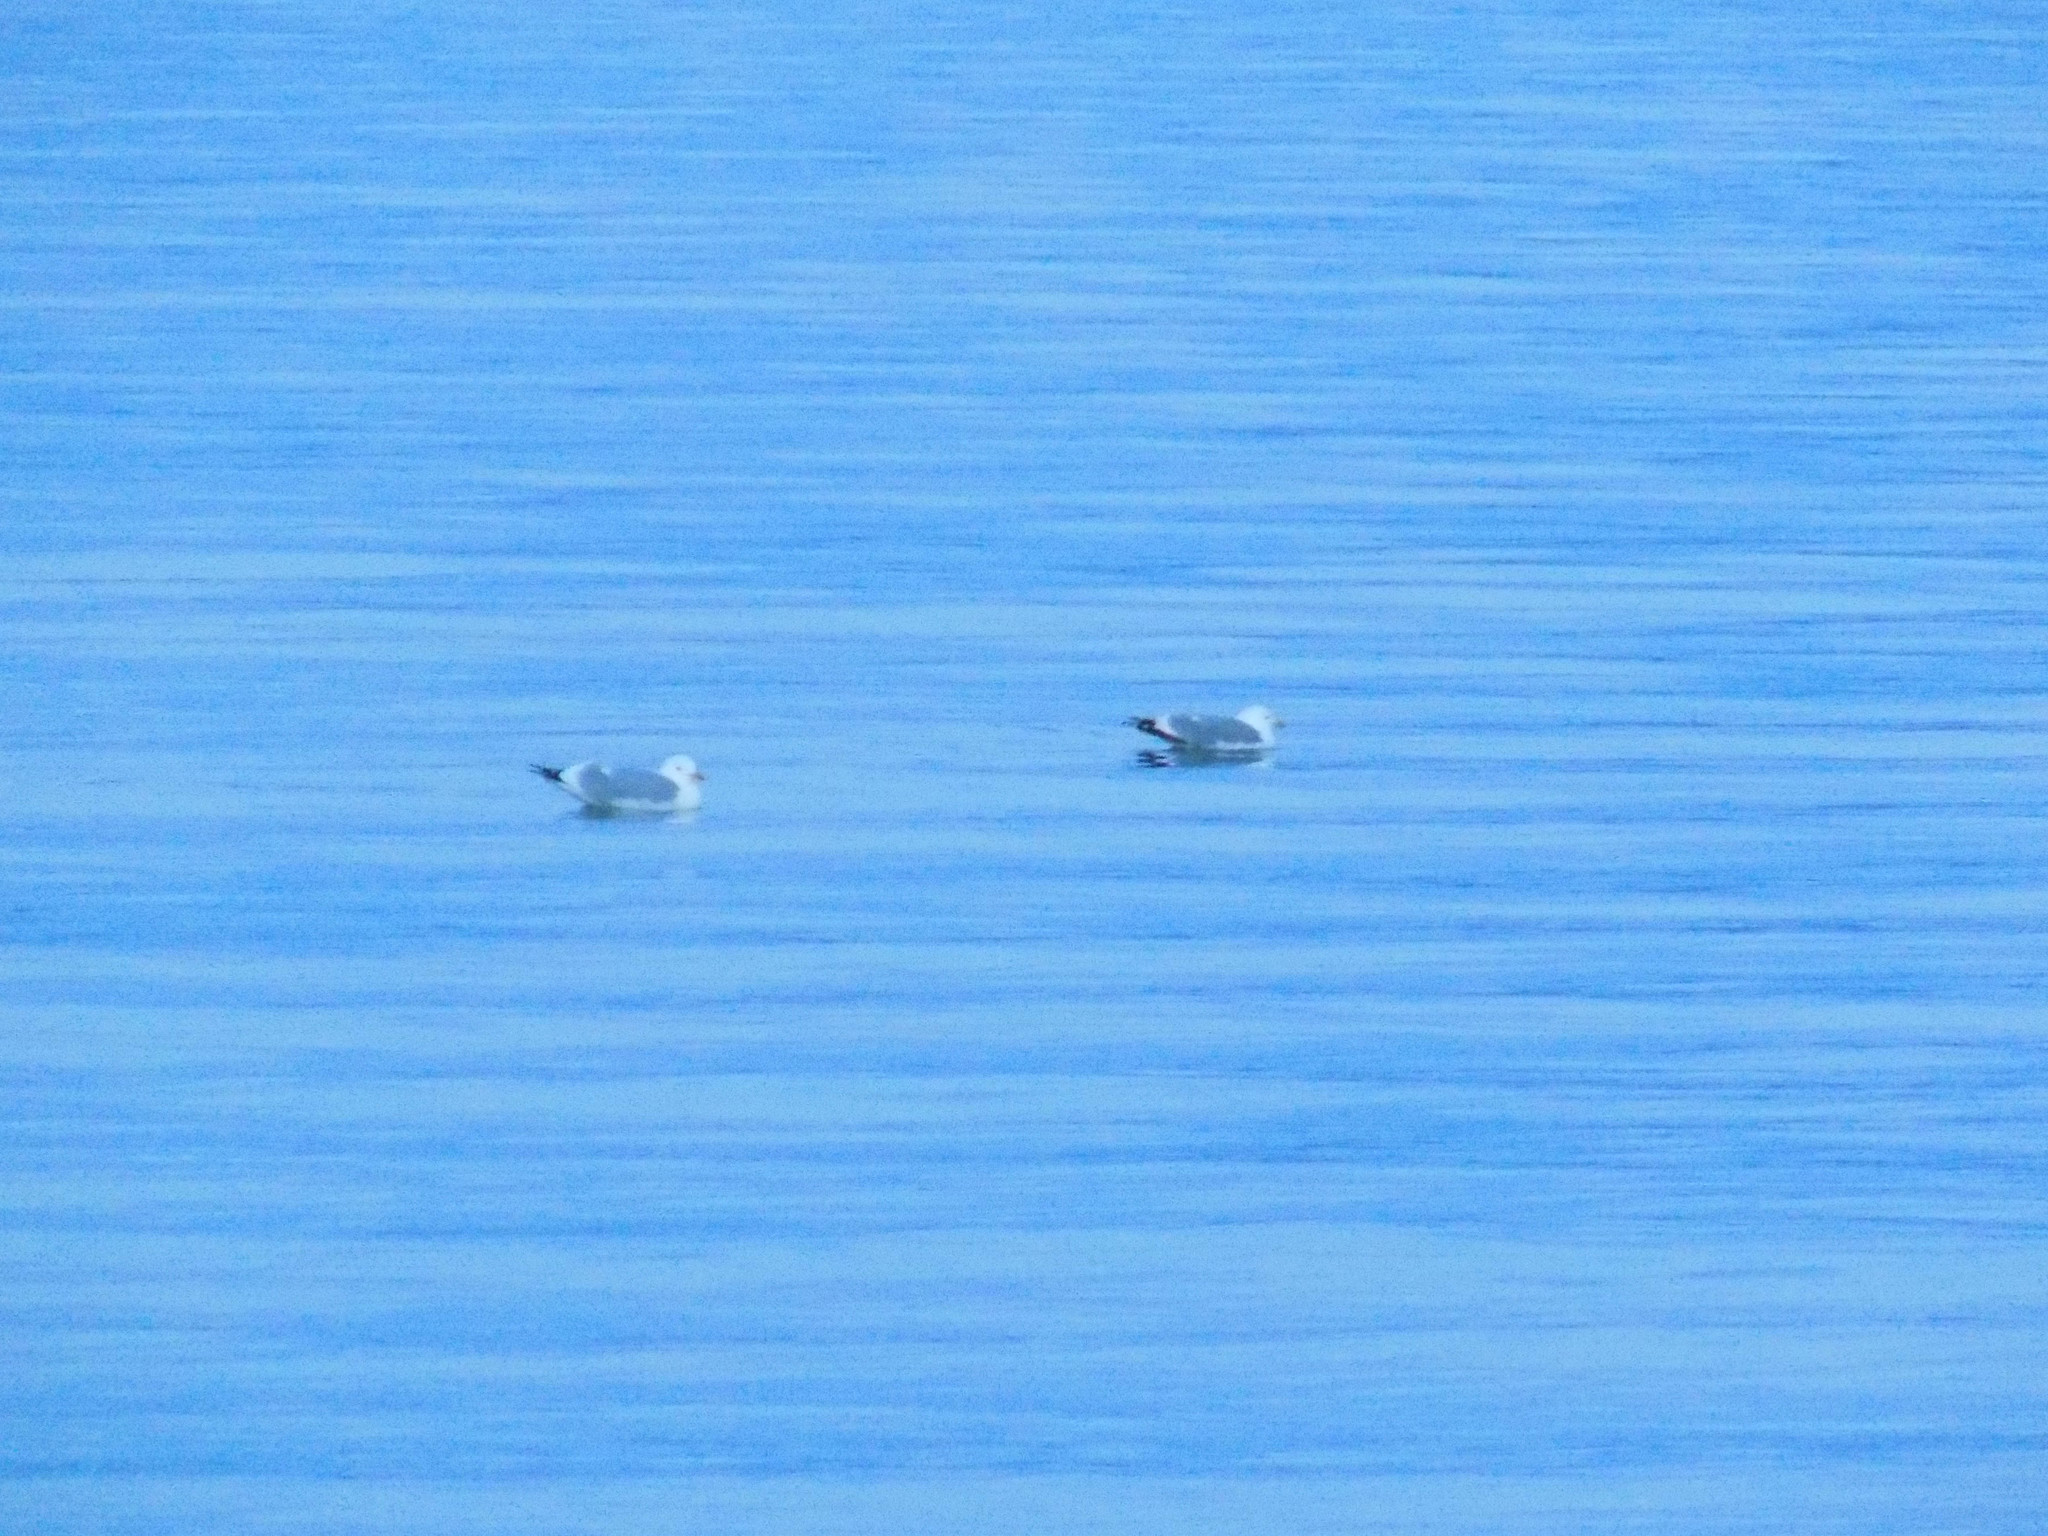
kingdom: Animalia
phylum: Chordata
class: Aves
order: Charadriiformes
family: Laridae
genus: Larus
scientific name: Larus vegae
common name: Vega gull
